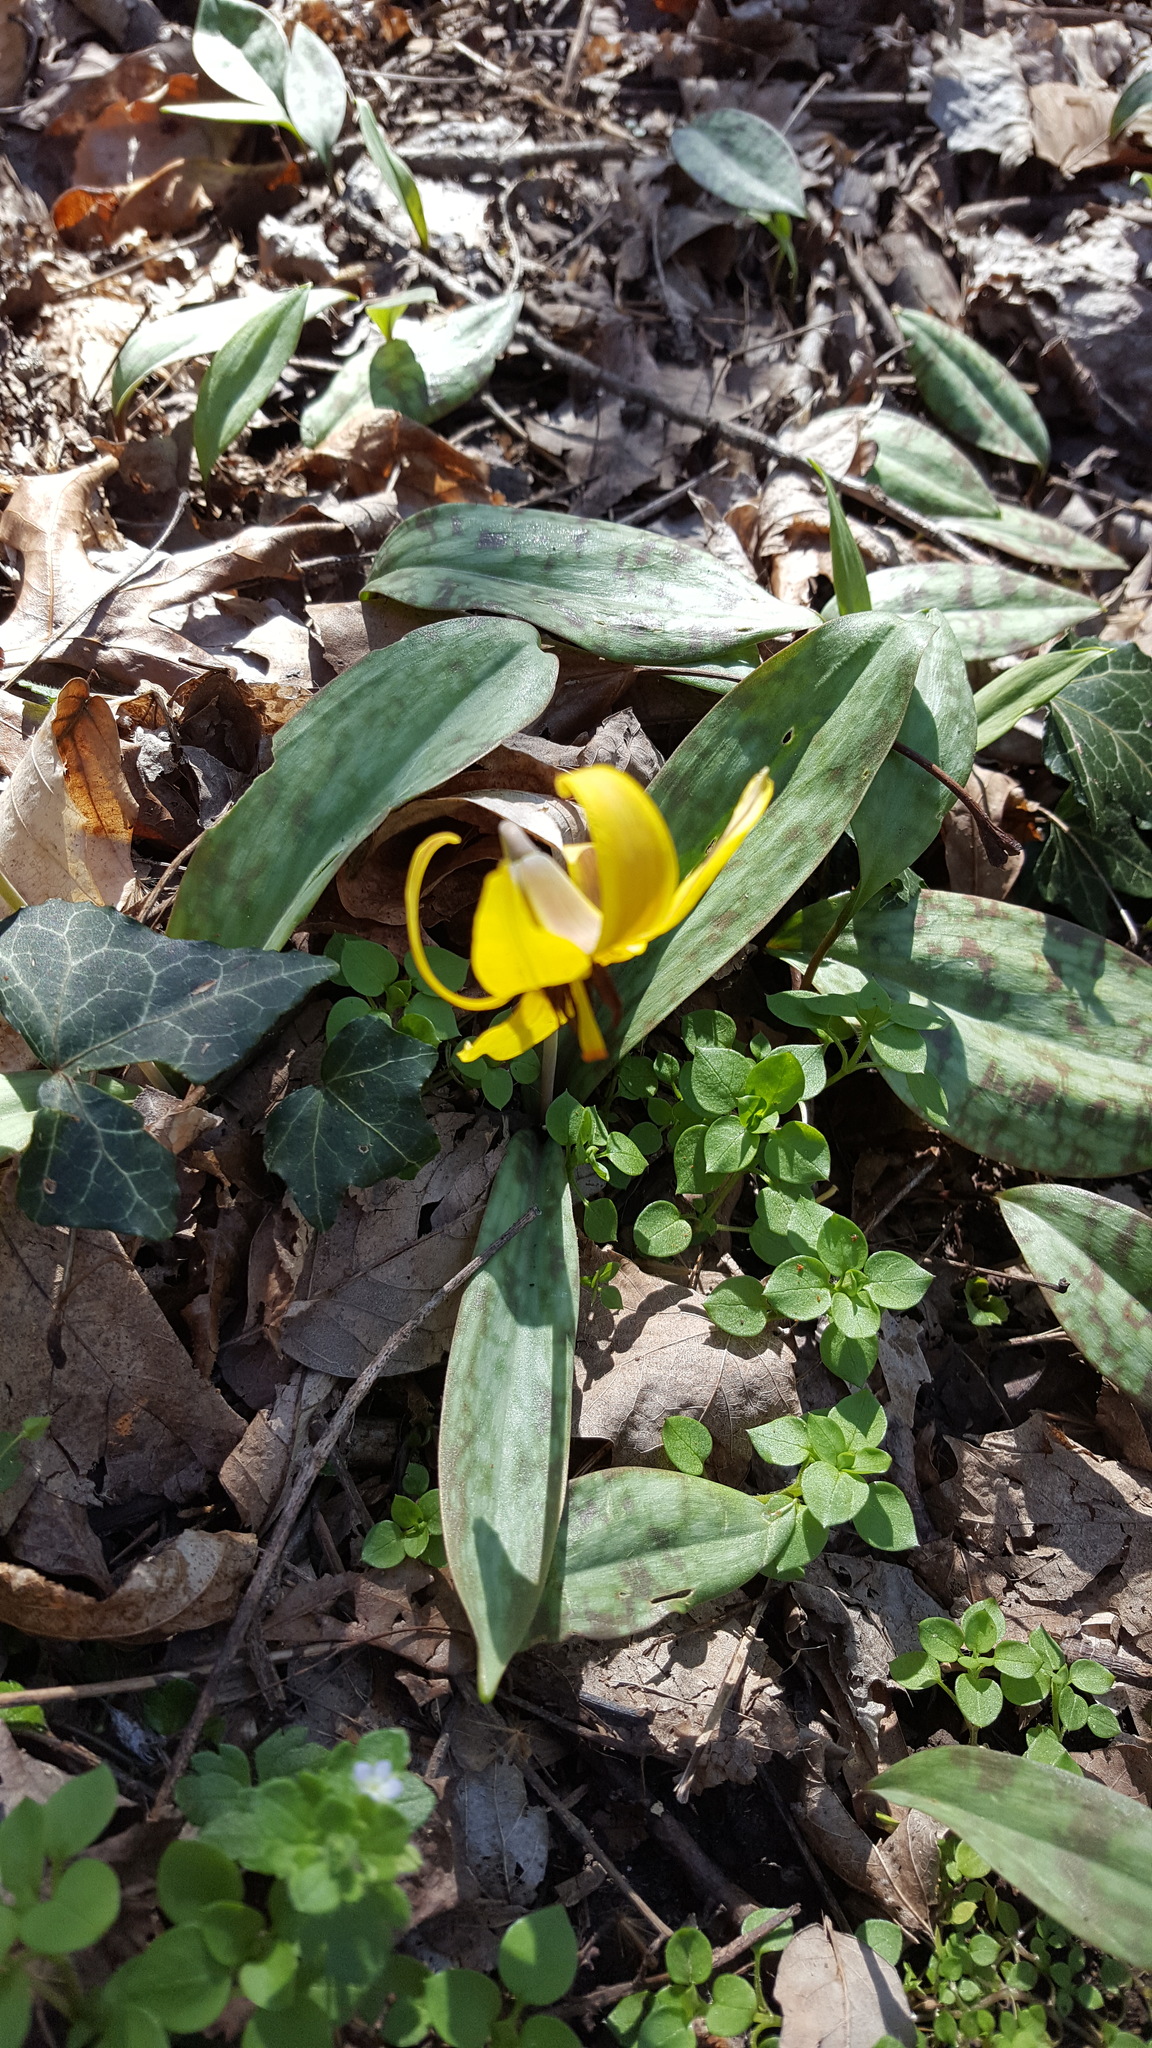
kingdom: Plantae
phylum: Tracheophyta
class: Liliopsida
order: Liliales
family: Liliaceae
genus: Erythronium
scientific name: Erythronium americanum
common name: Yellow adder's-tongue
